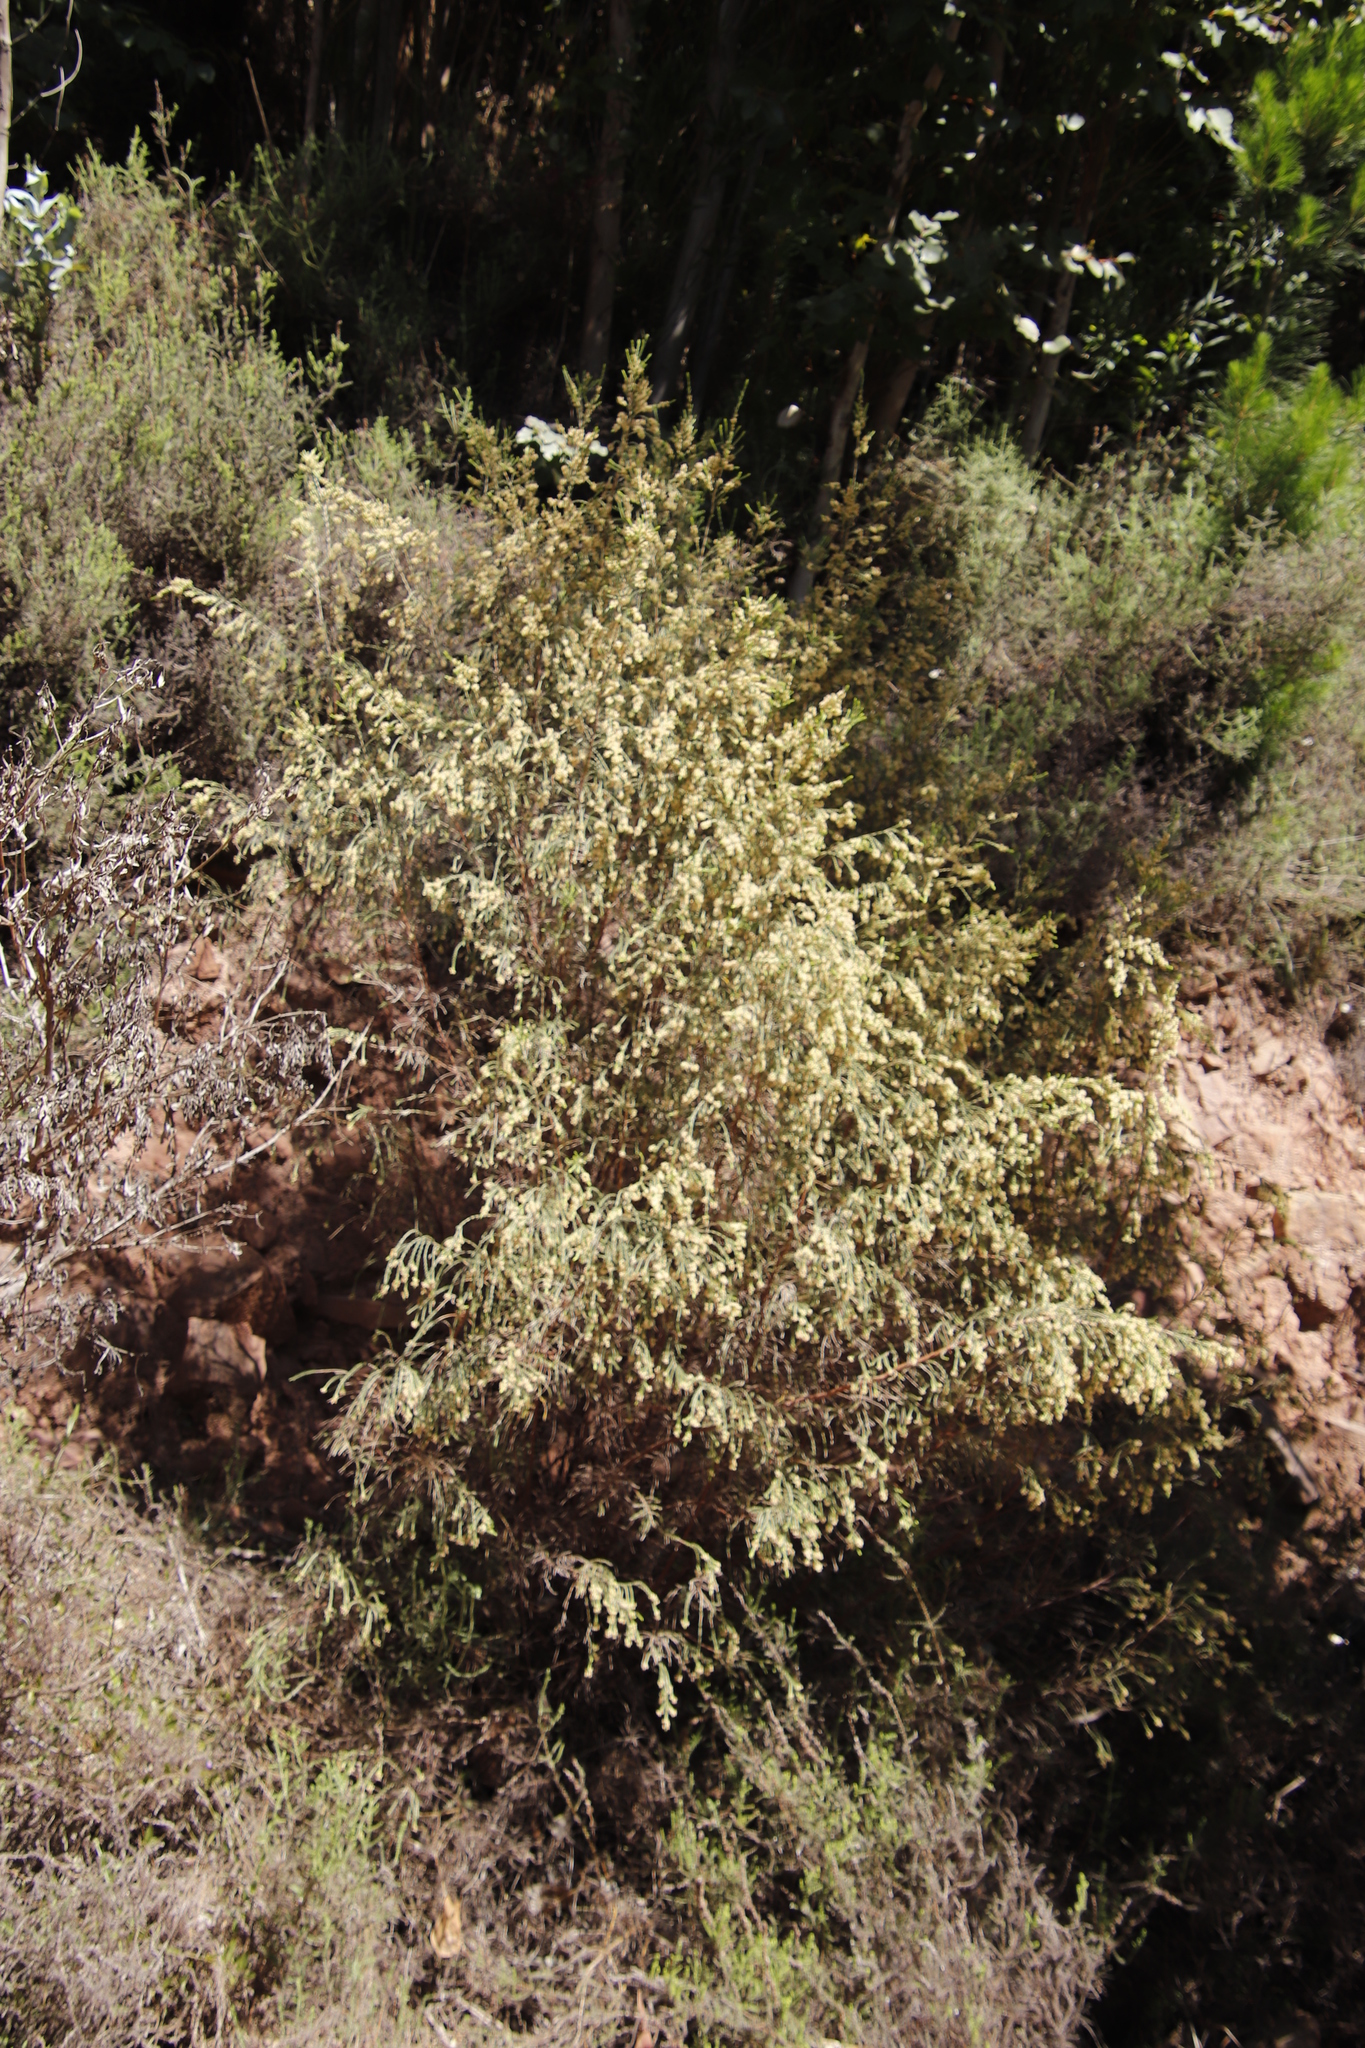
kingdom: Plantae
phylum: Tracheophyta
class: Magnoliopsida
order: Malvales
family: Thymelaeaceae
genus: Passerina
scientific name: Passerina corymbosa
